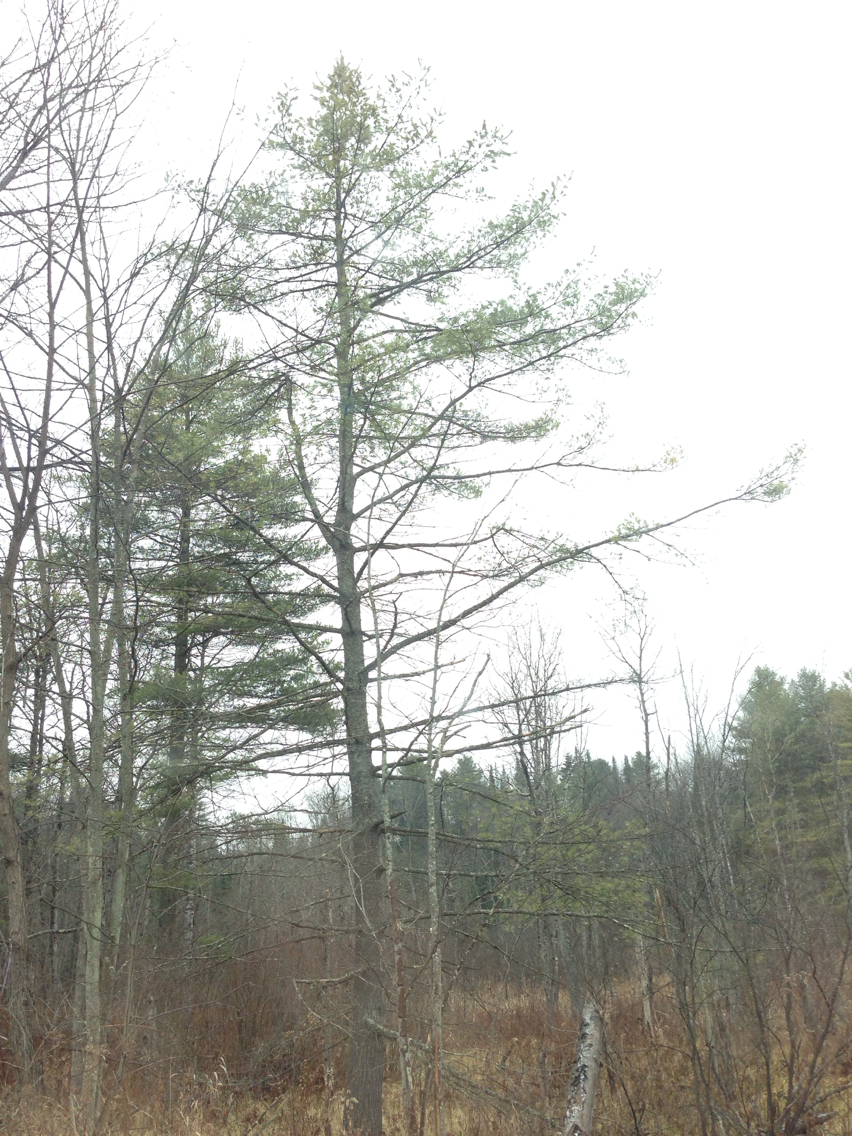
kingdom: Plantae
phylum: Tracheophyta
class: Pinopsida
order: Pinales
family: Pinaceae
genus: Pinus
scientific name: Pinus strobus
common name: Weymouth pine
